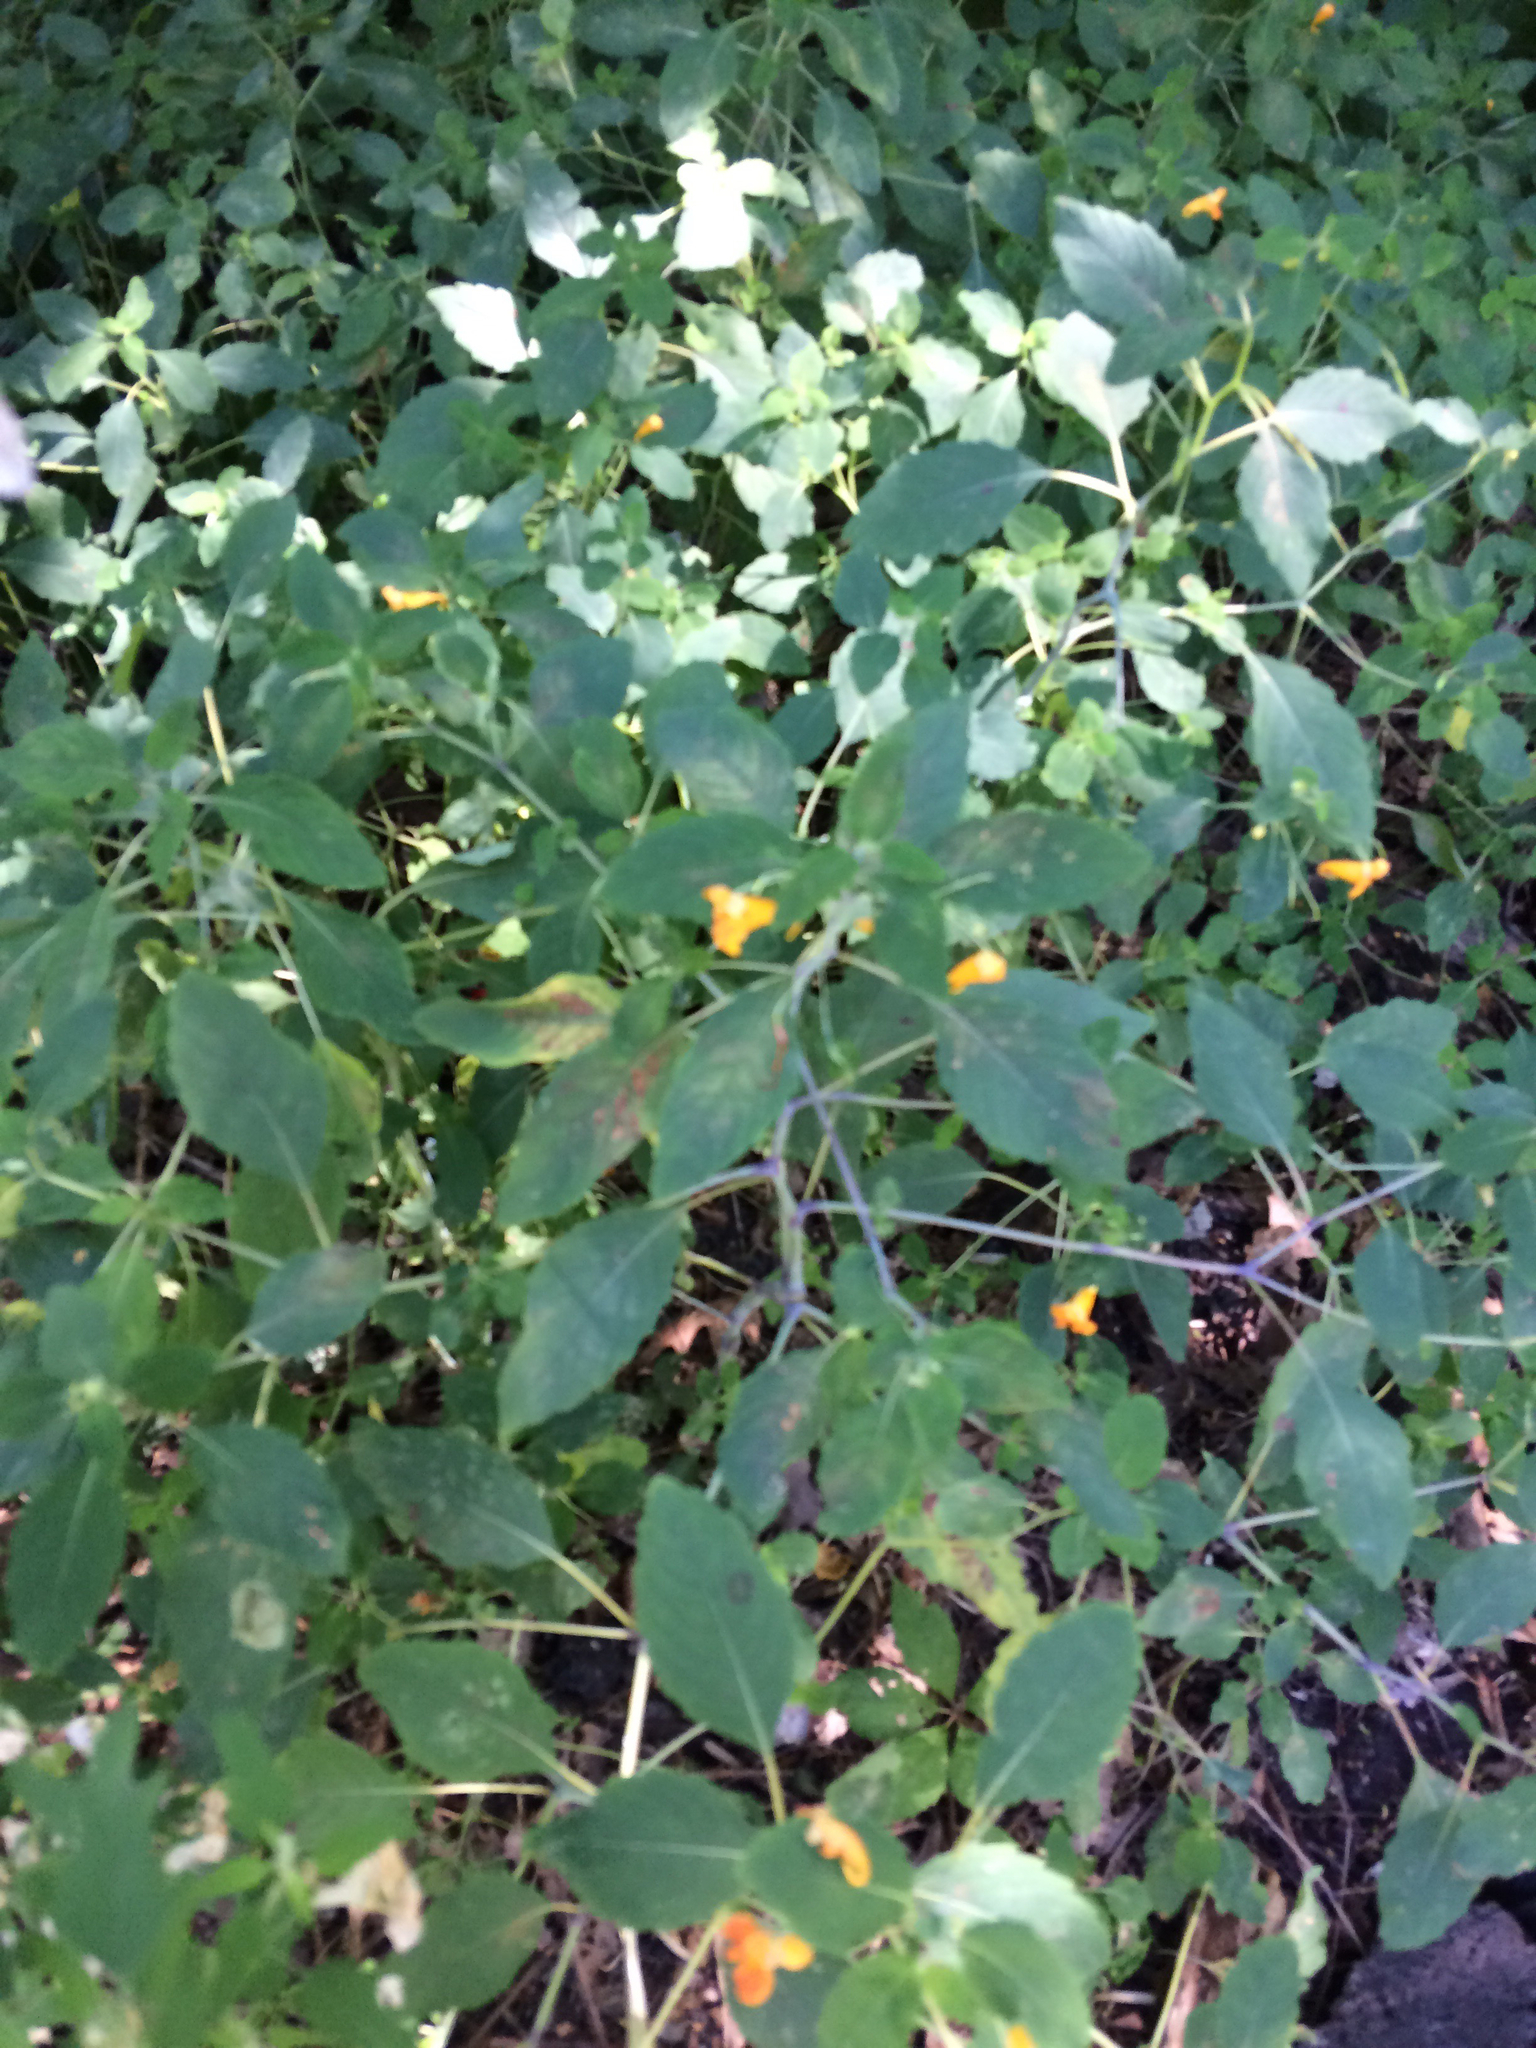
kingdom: Plantae
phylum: Tracheophyta
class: Magnoliopsida
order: Ericales
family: Balsaminaceae
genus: Impatiens
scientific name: Impatiens capensis
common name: Orange balsam
